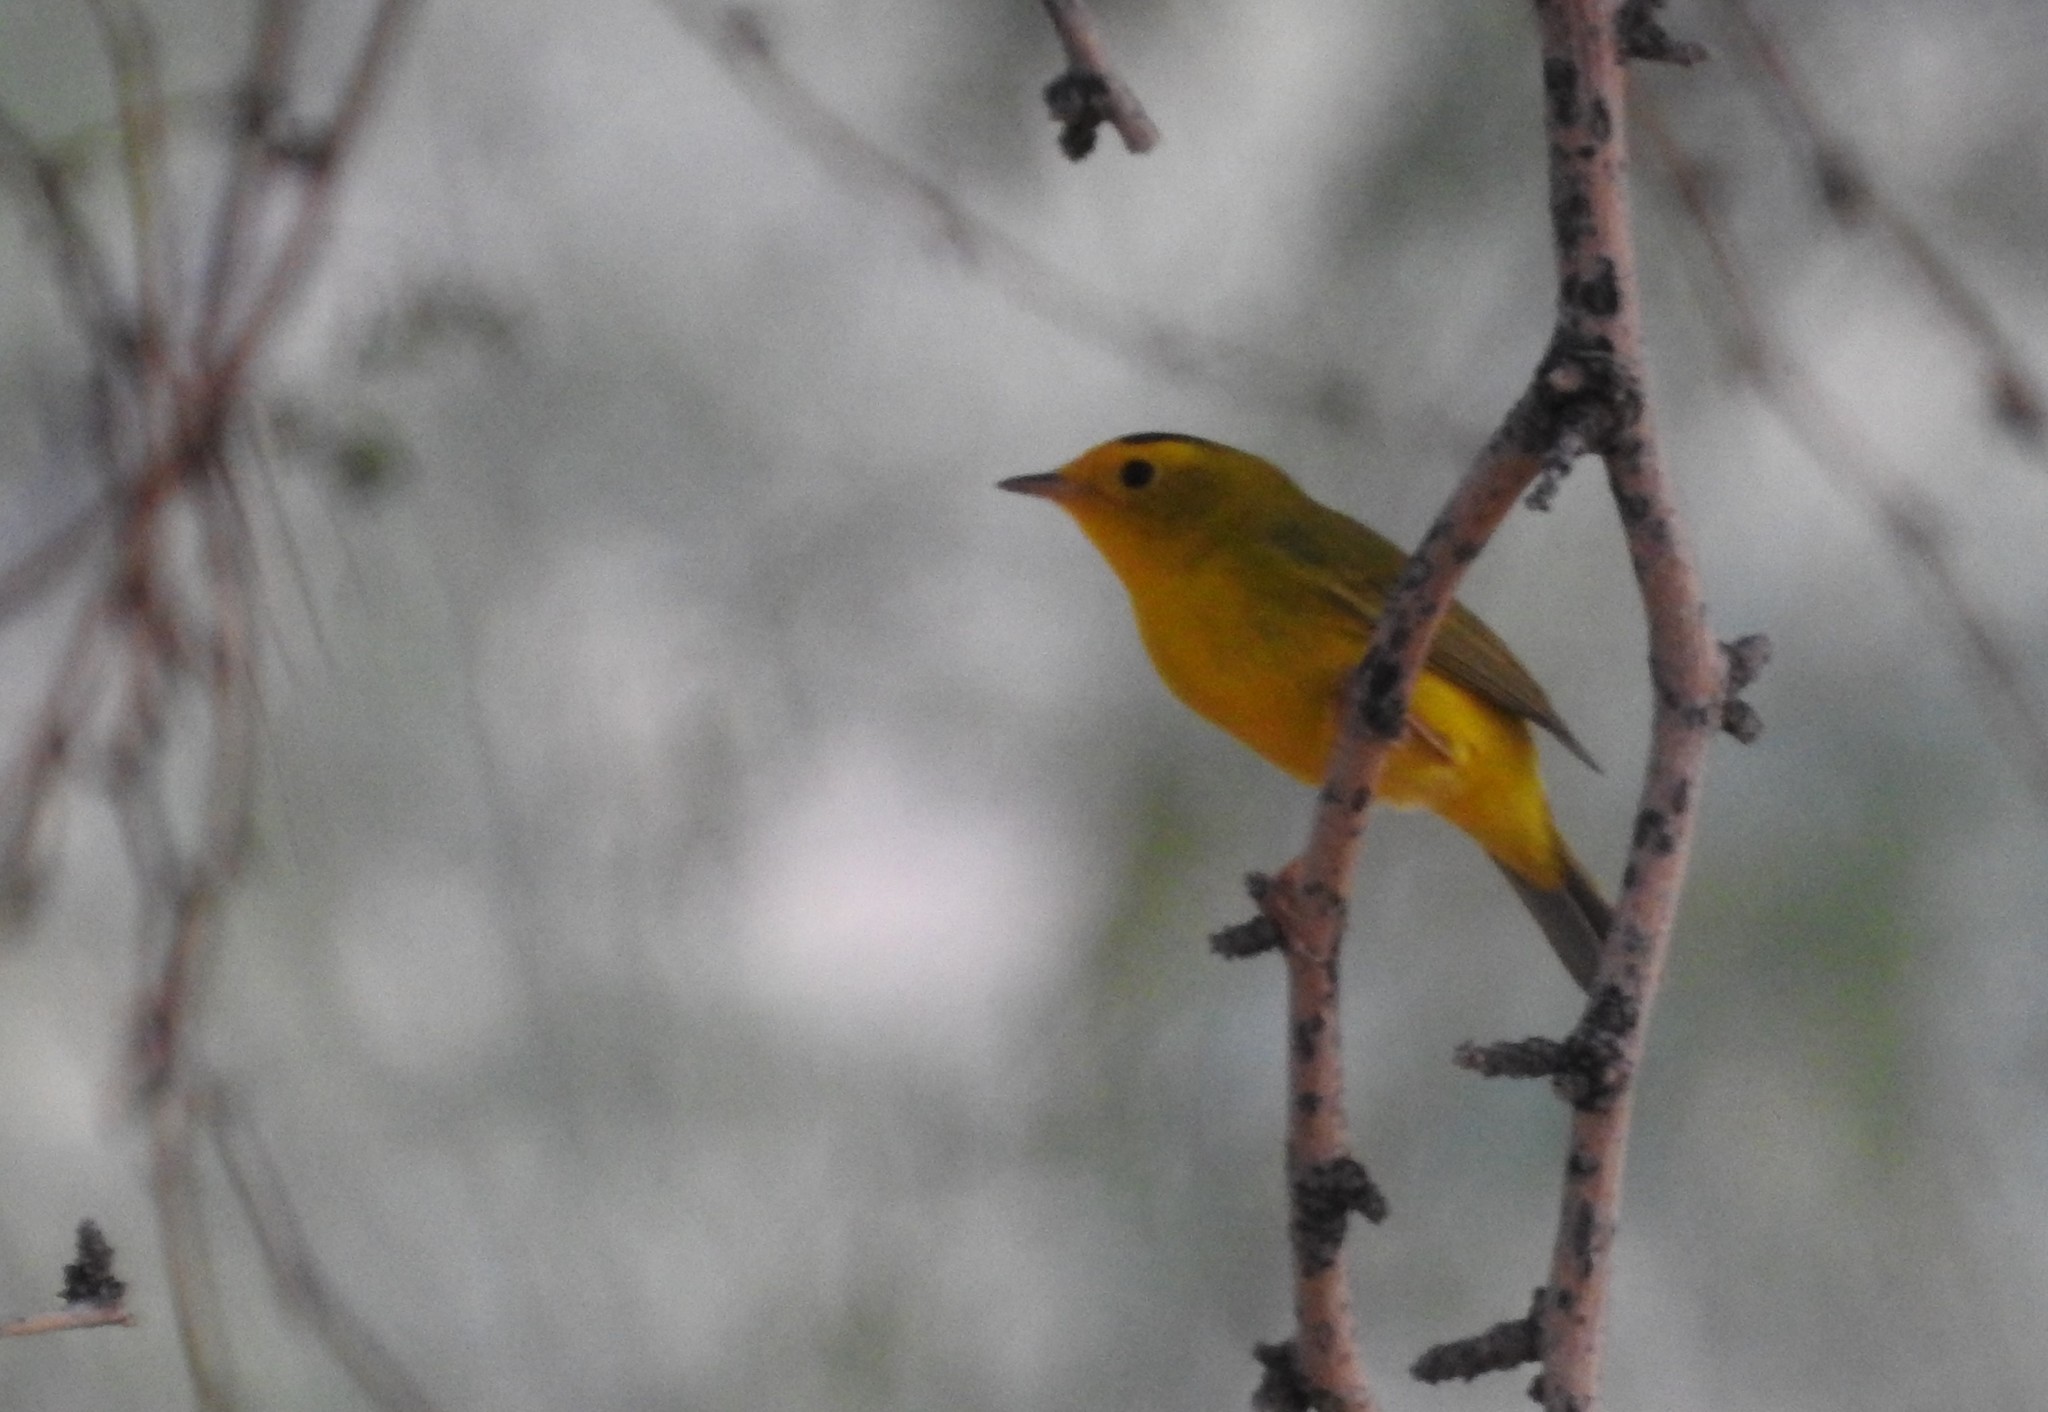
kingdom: Animalia
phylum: Chordata
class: Aves
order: Passeriformes
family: Parulidae
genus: Cardellina
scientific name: Cardellina pusilla
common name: Wilson's warbler
